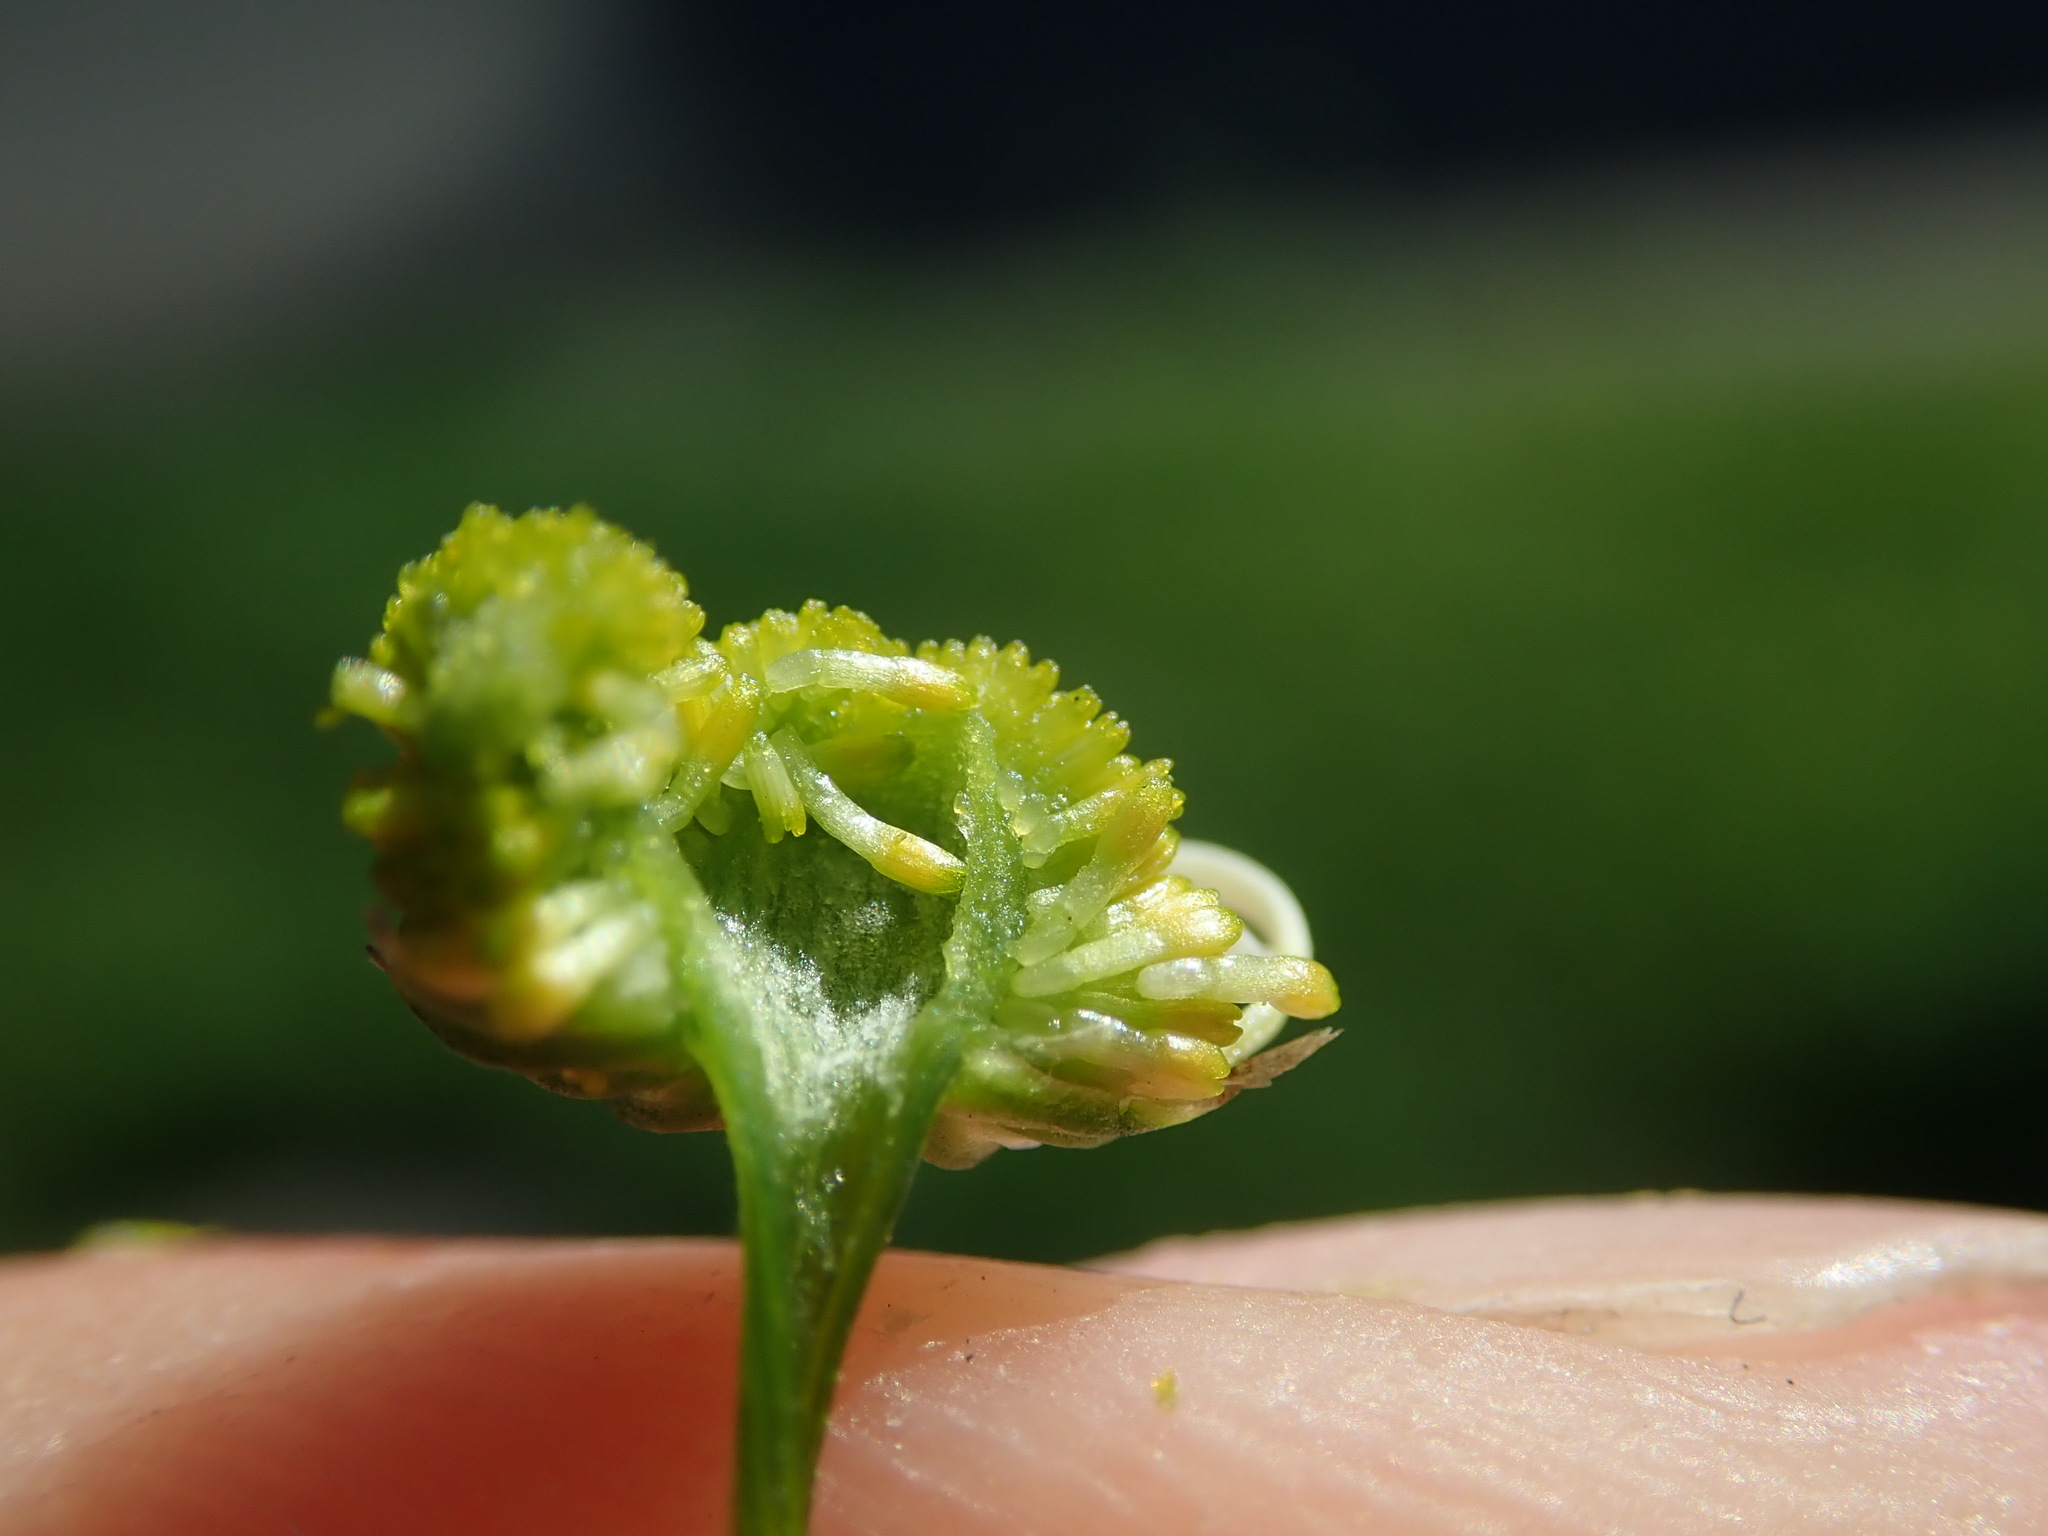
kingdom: Plantae
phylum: Tracheophyta
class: Magnoliopsida
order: Asterales
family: Asteraceae
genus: Matricaria
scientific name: Matricaria chamomilla
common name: Scented mayweed
